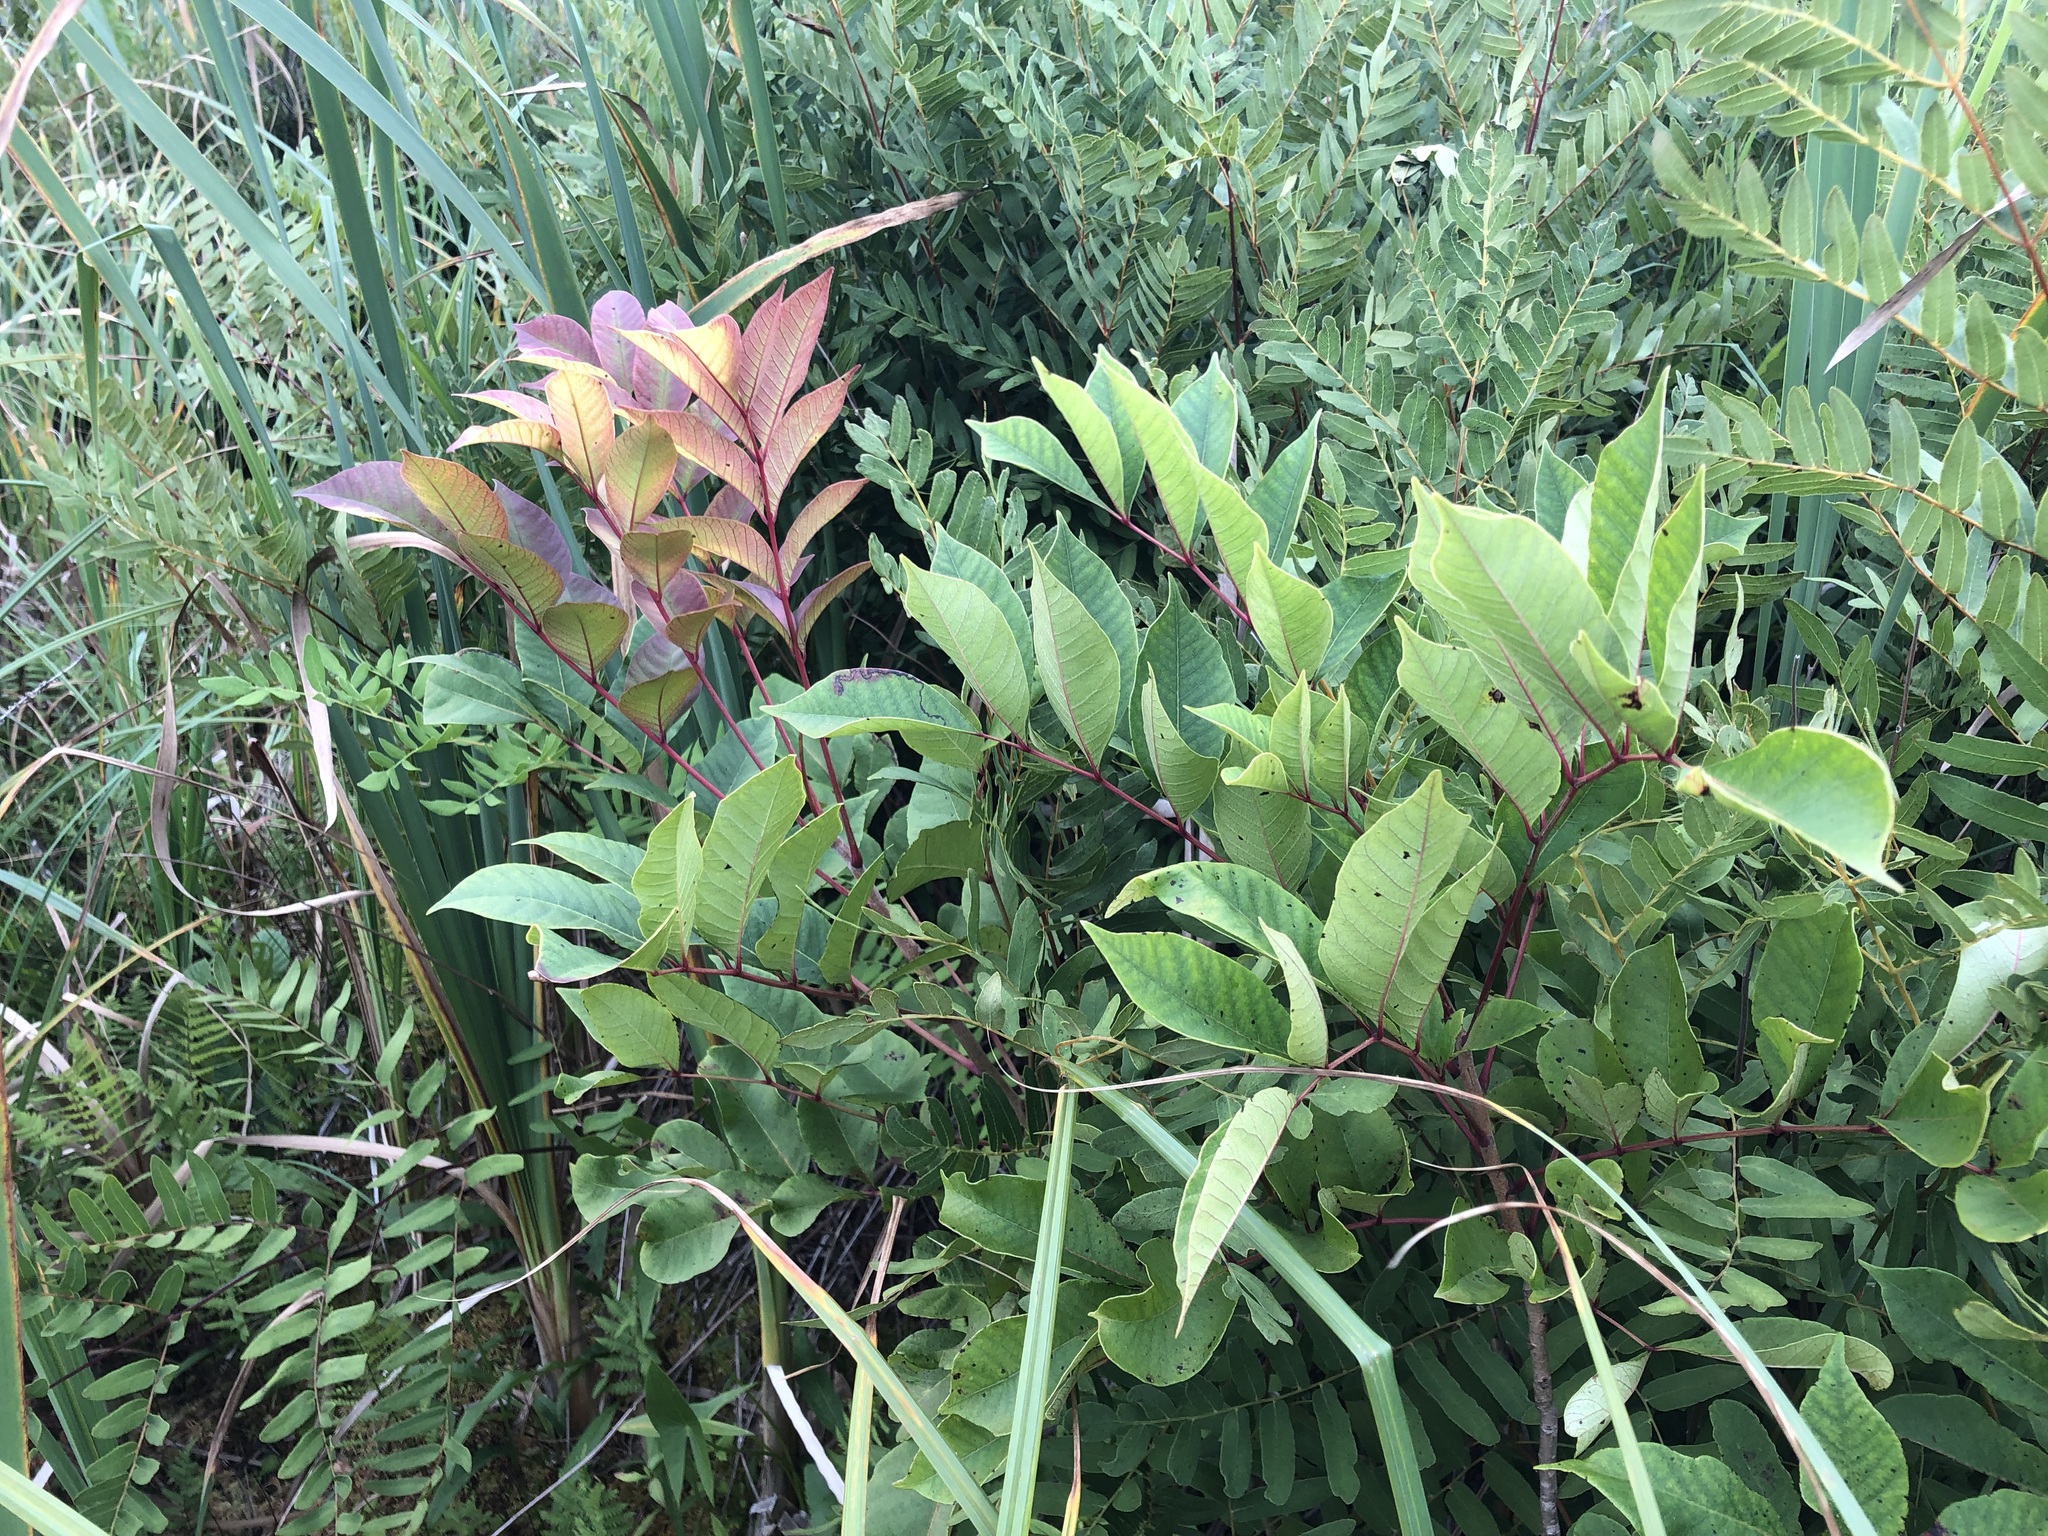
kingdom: Plantae
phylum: Tracheophyta
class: Magnoliopsida
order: Sapindales
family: Anacardiaceae
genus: Toxicodendron
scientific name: Toxicodendron vernix
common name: Poison sumac
